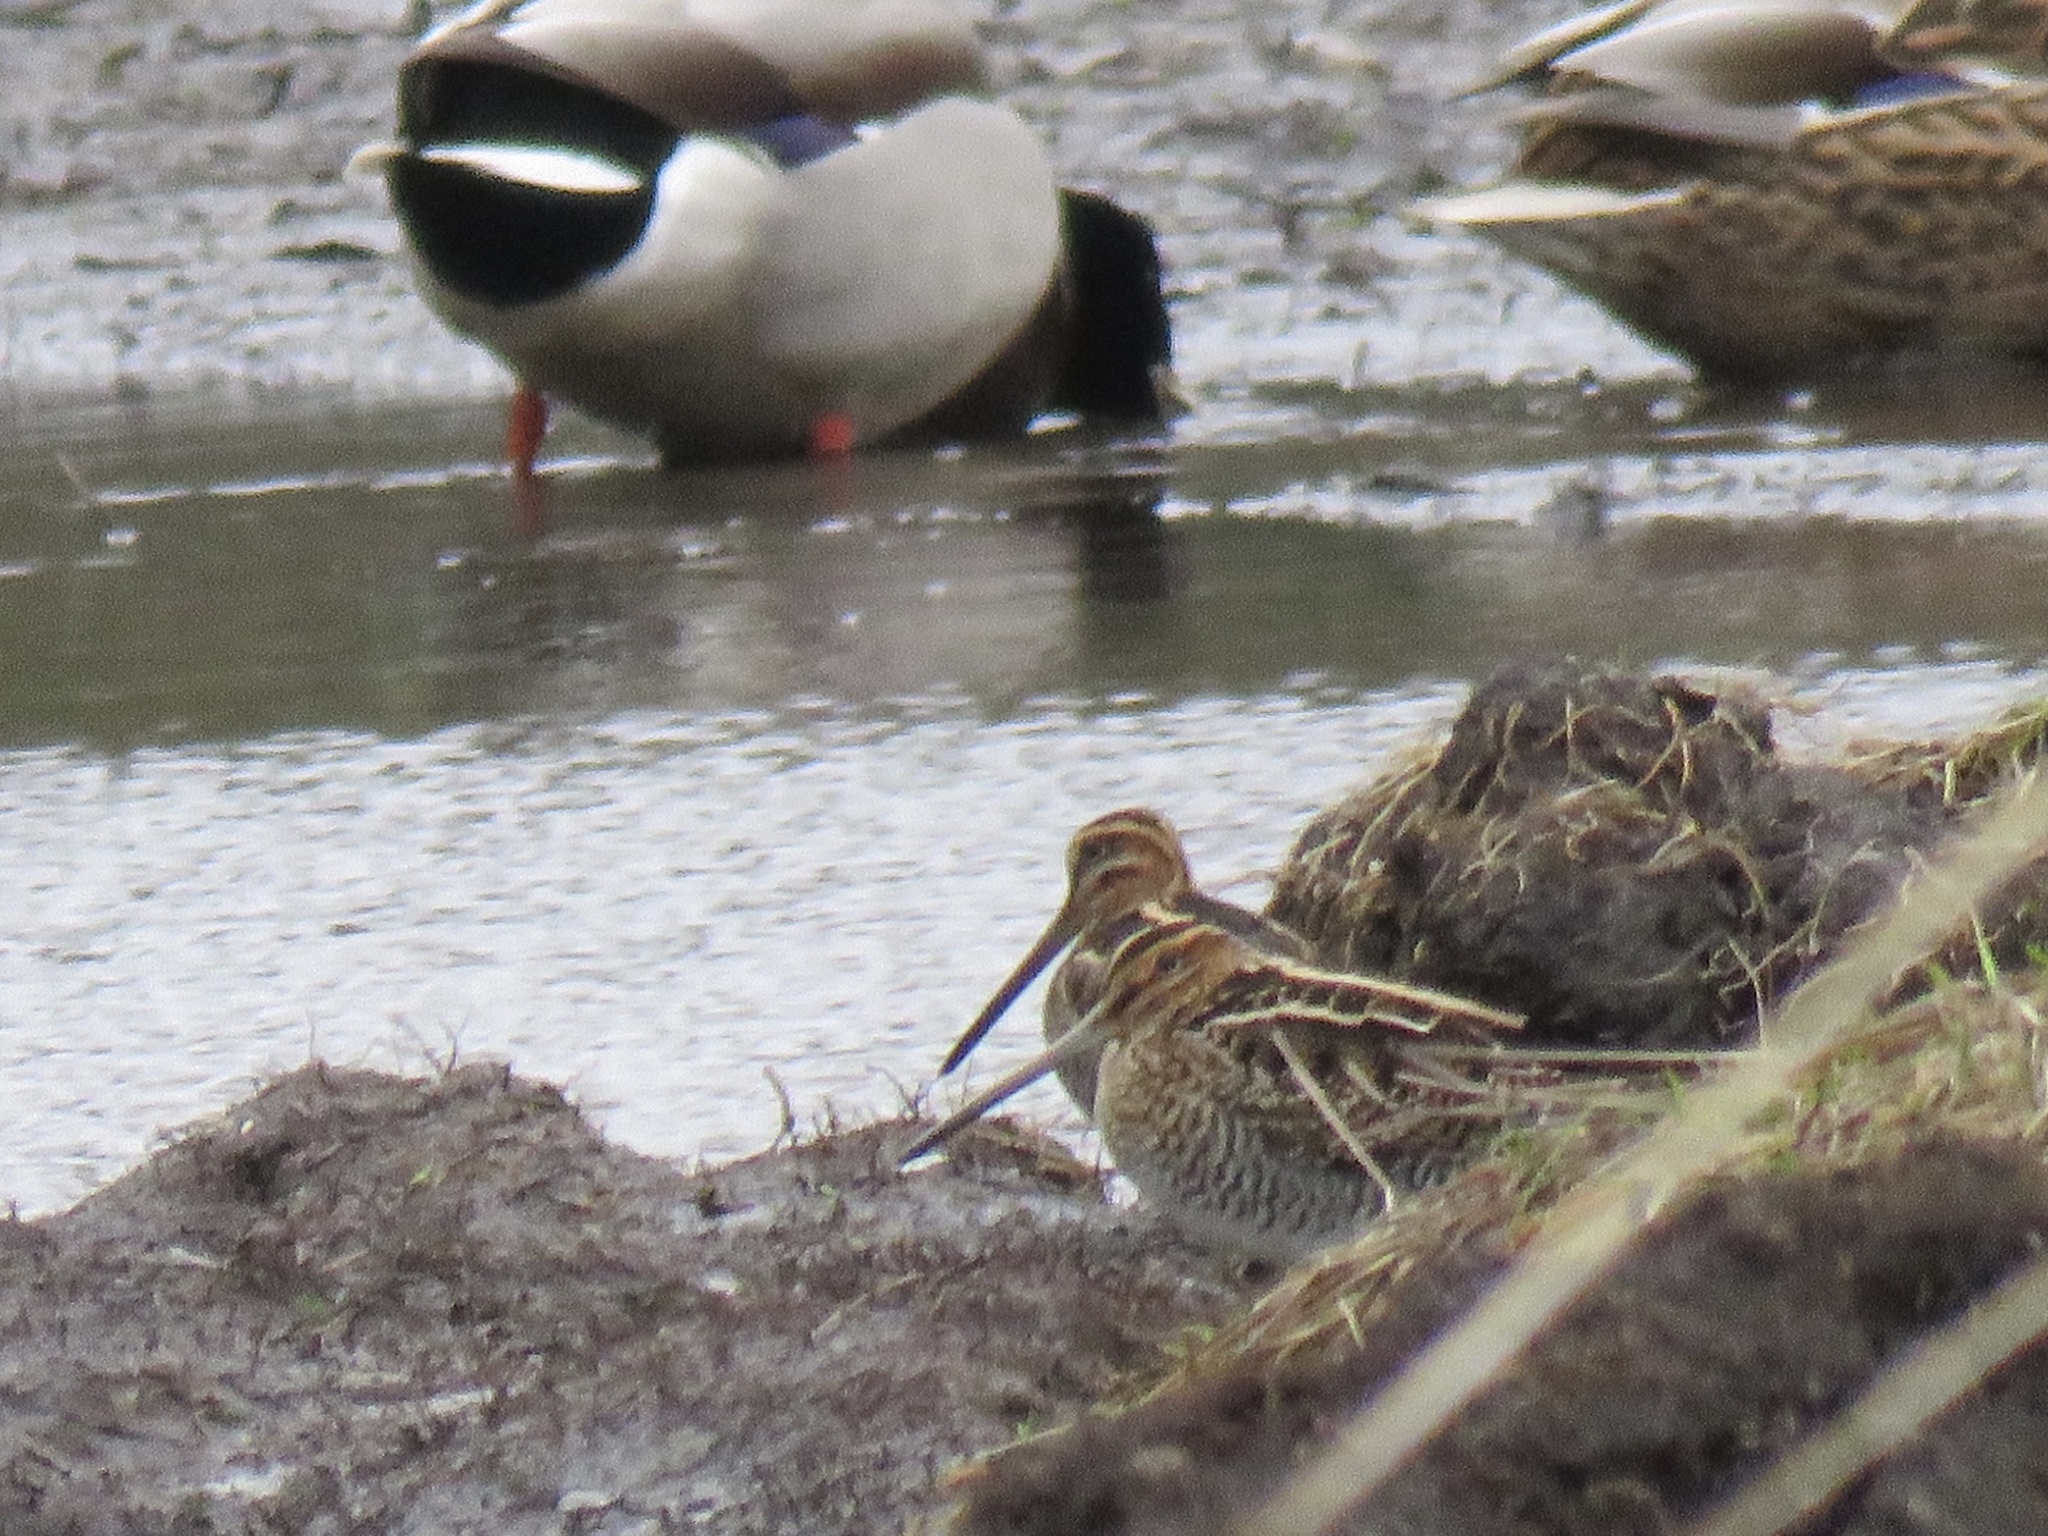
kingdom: Animalia
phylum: Chordata
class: Aves
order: Charadriiformes
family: Scolopacidae
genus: Gallinago
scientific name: Gallinago delicata
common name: Wilson's snipe
